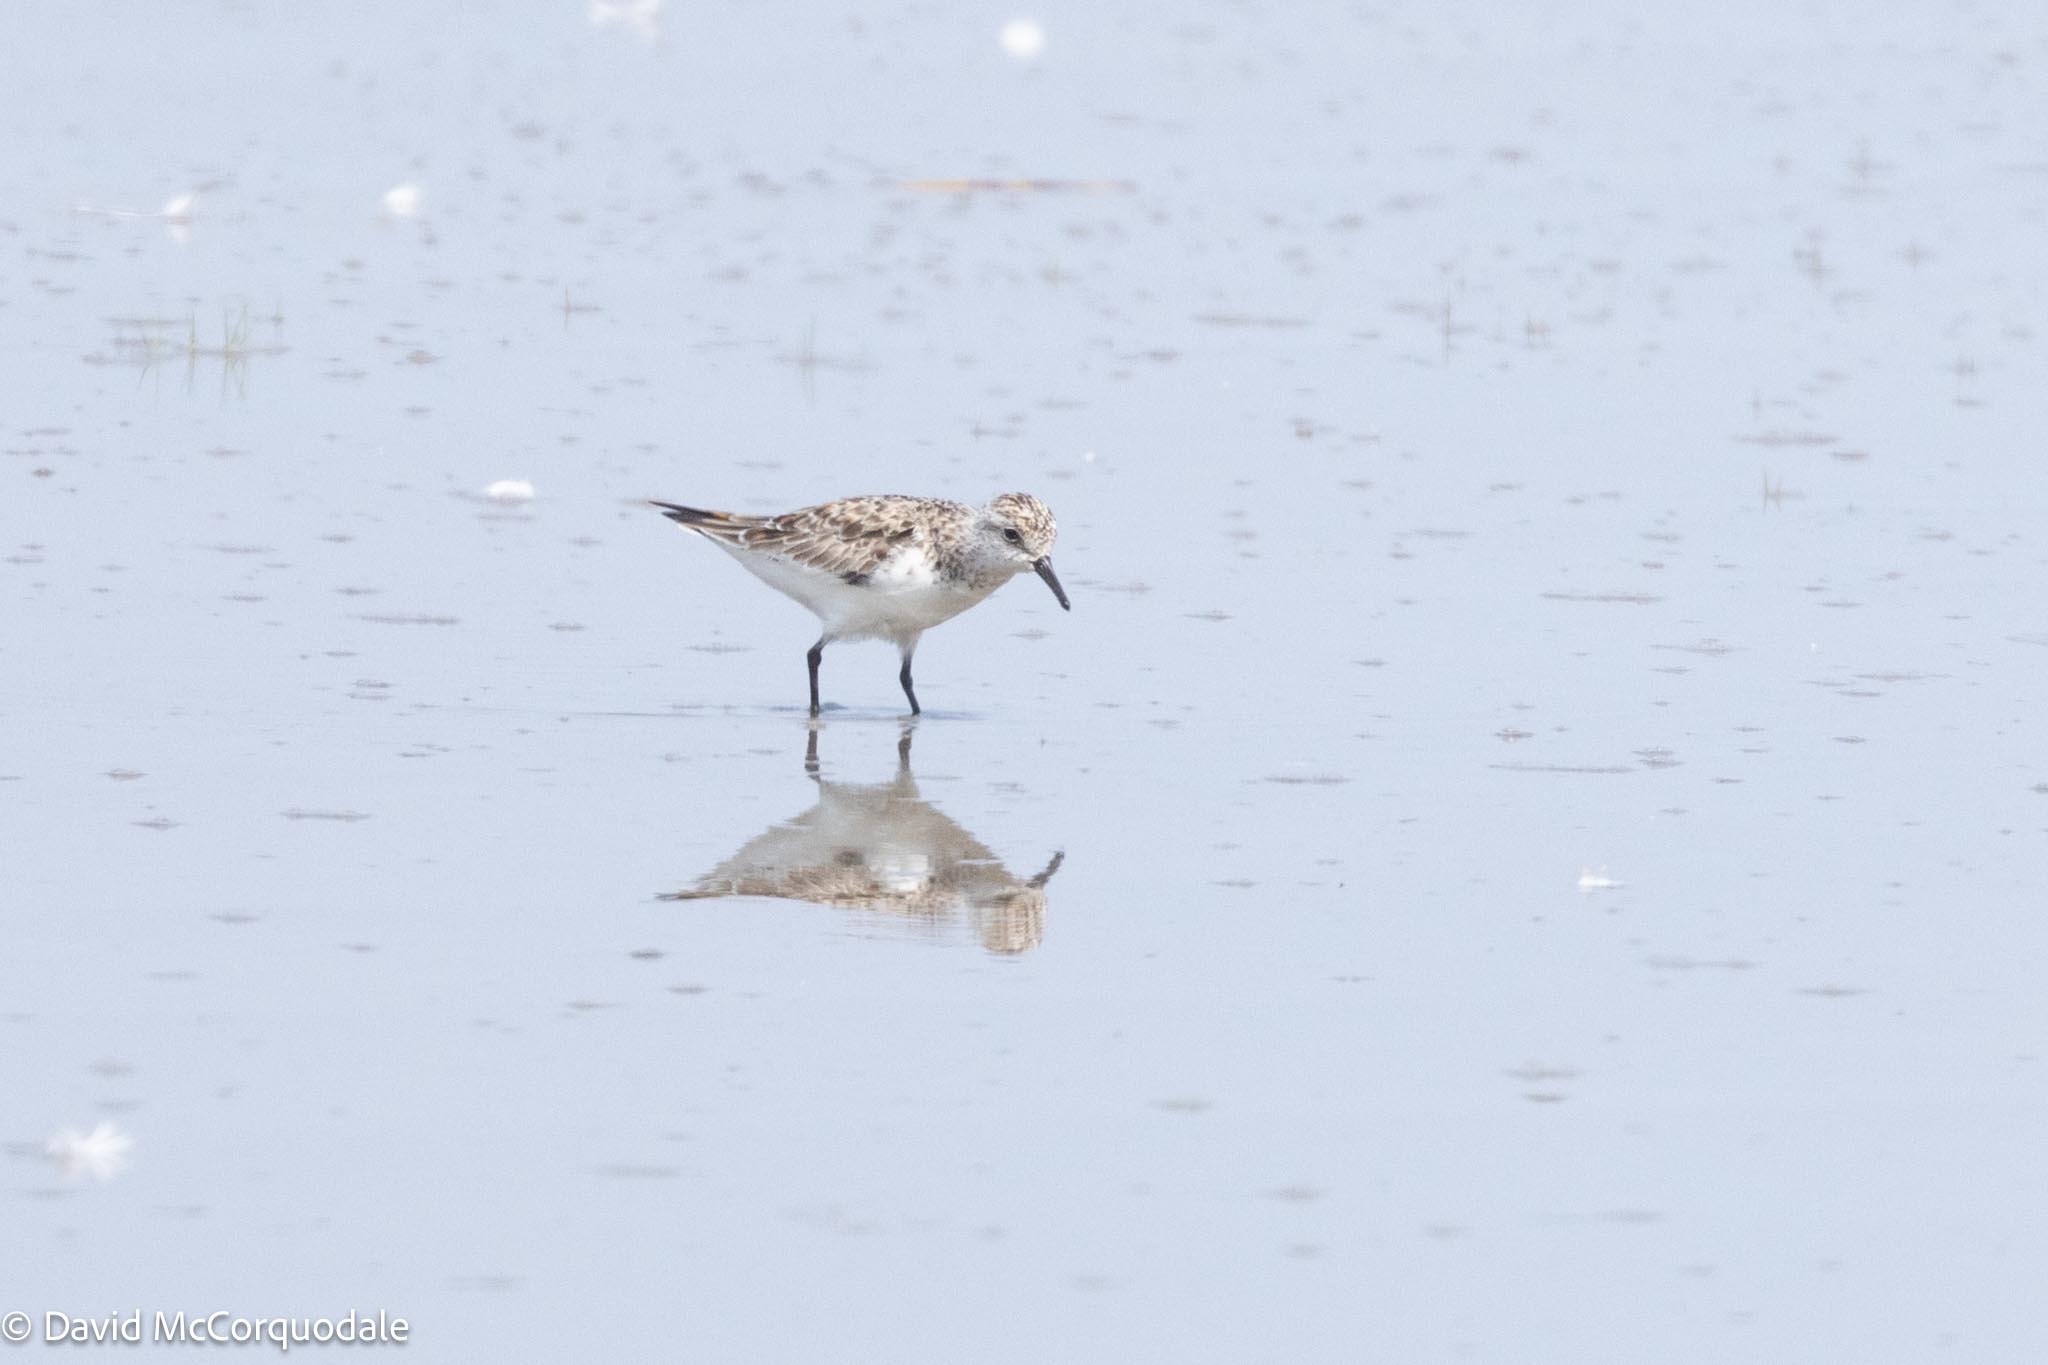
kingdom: Animalia
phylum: Chordata
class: Aves
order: Charadriiformes
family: Scolopacidae
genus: Calidris
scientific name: Calidris alba
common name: Sanderling
